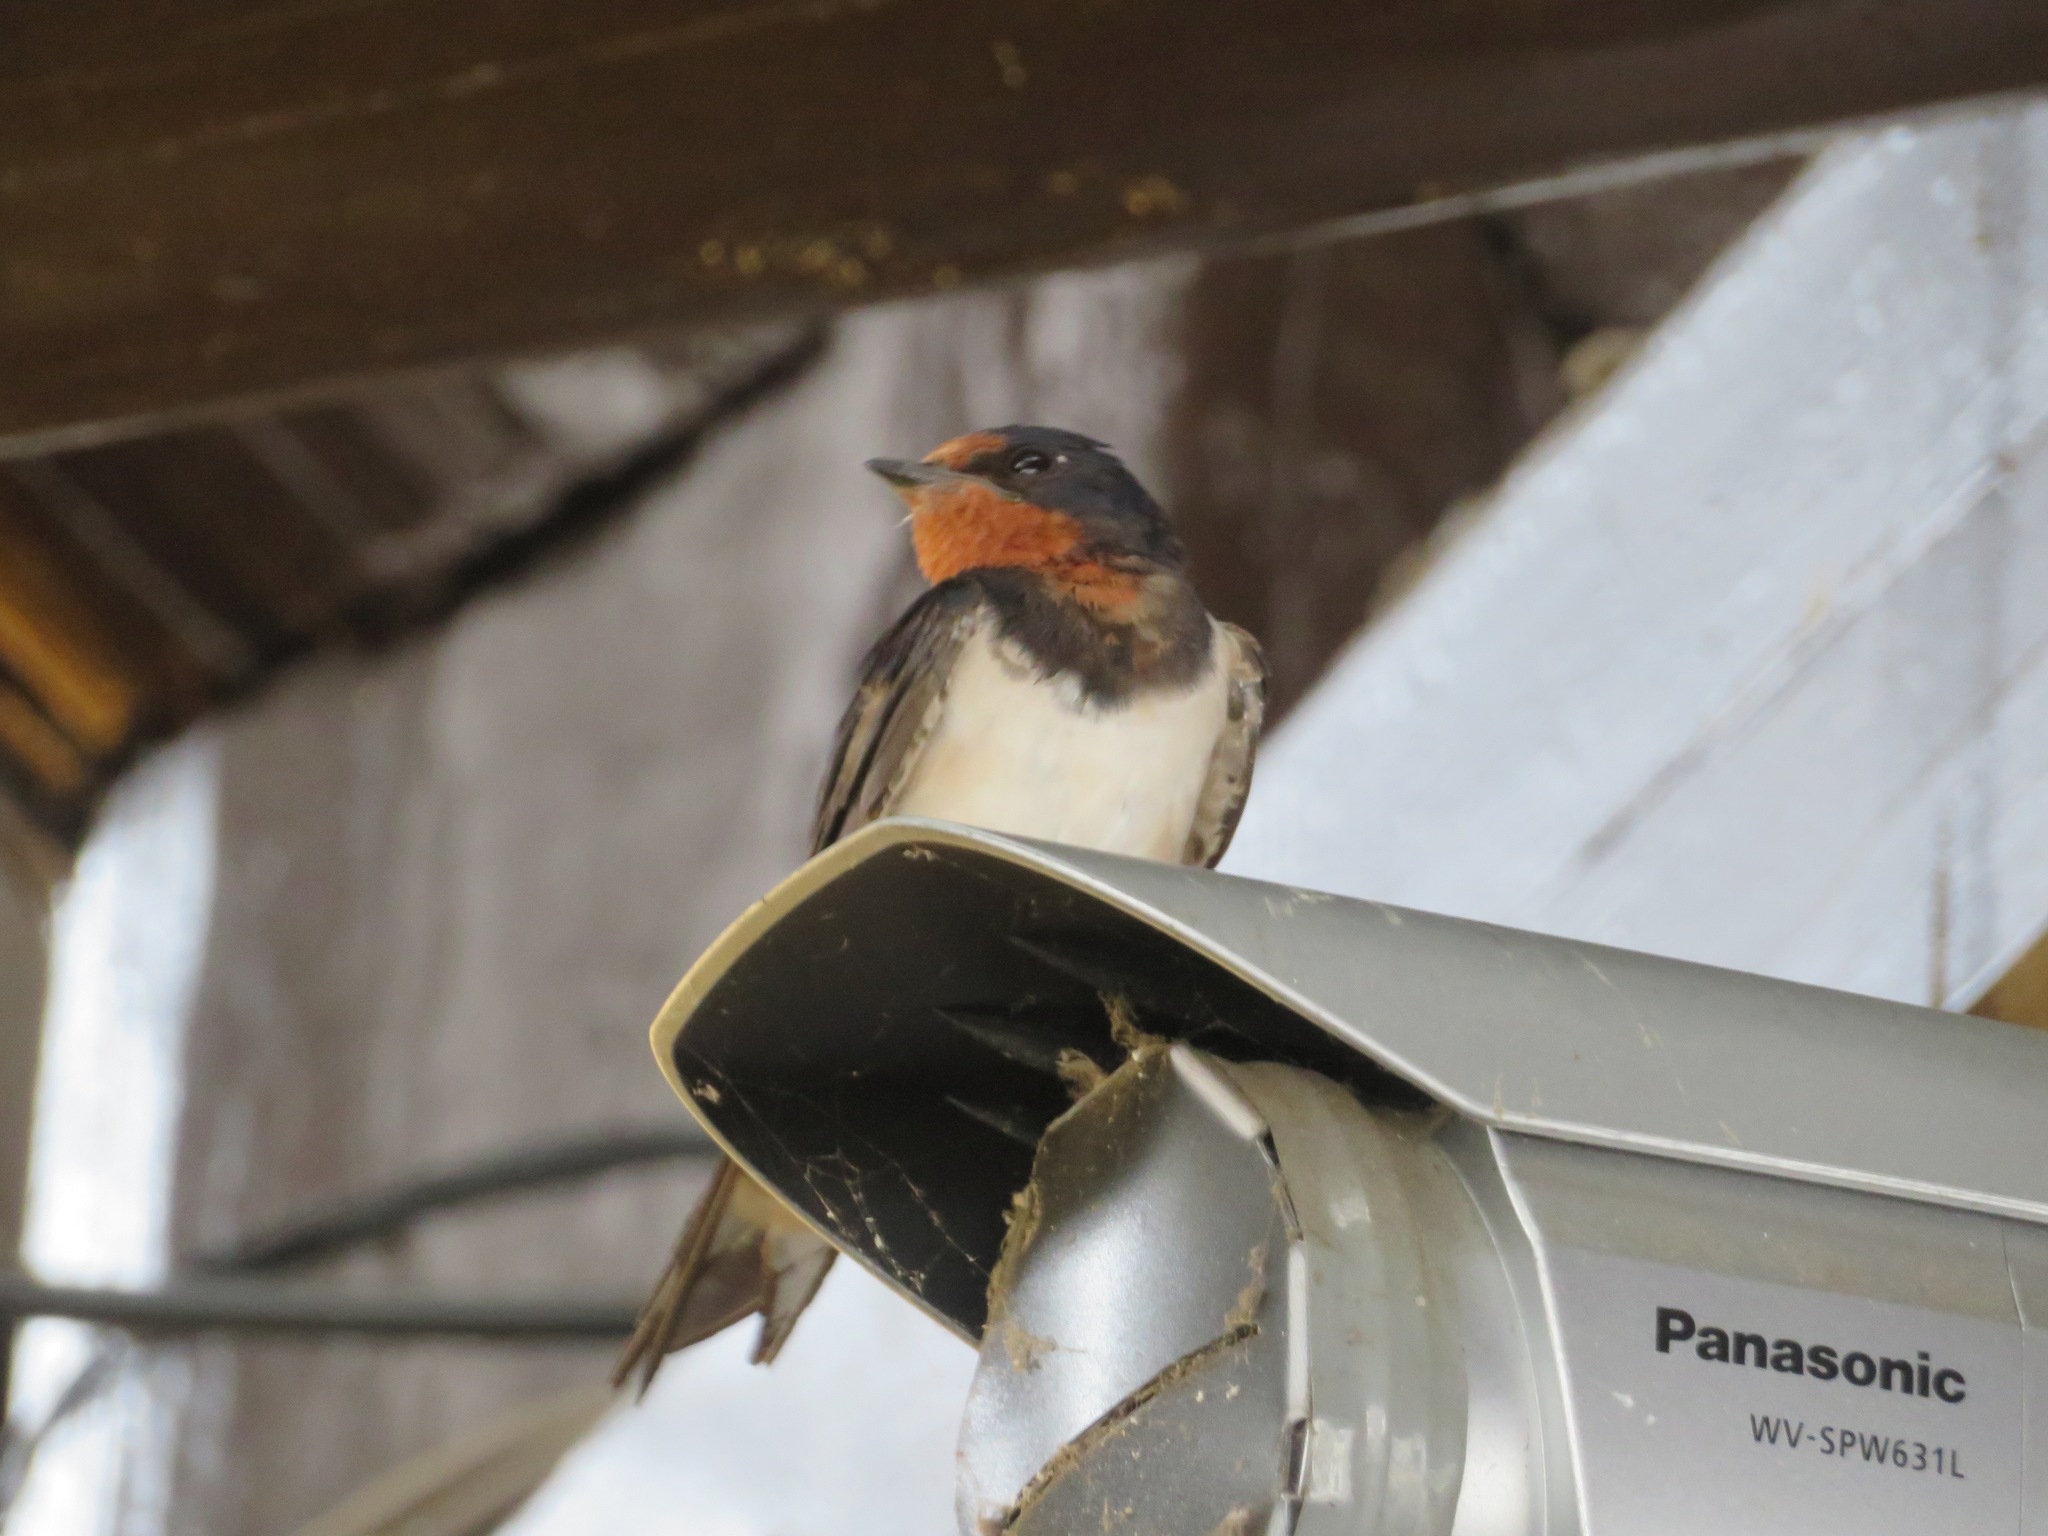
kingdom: Animalia
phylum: Chordata
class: Aves
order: Passeriformes
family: Hirundinidae
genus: Hirundo
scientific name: Hirundo rustica
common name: Barn swallow
